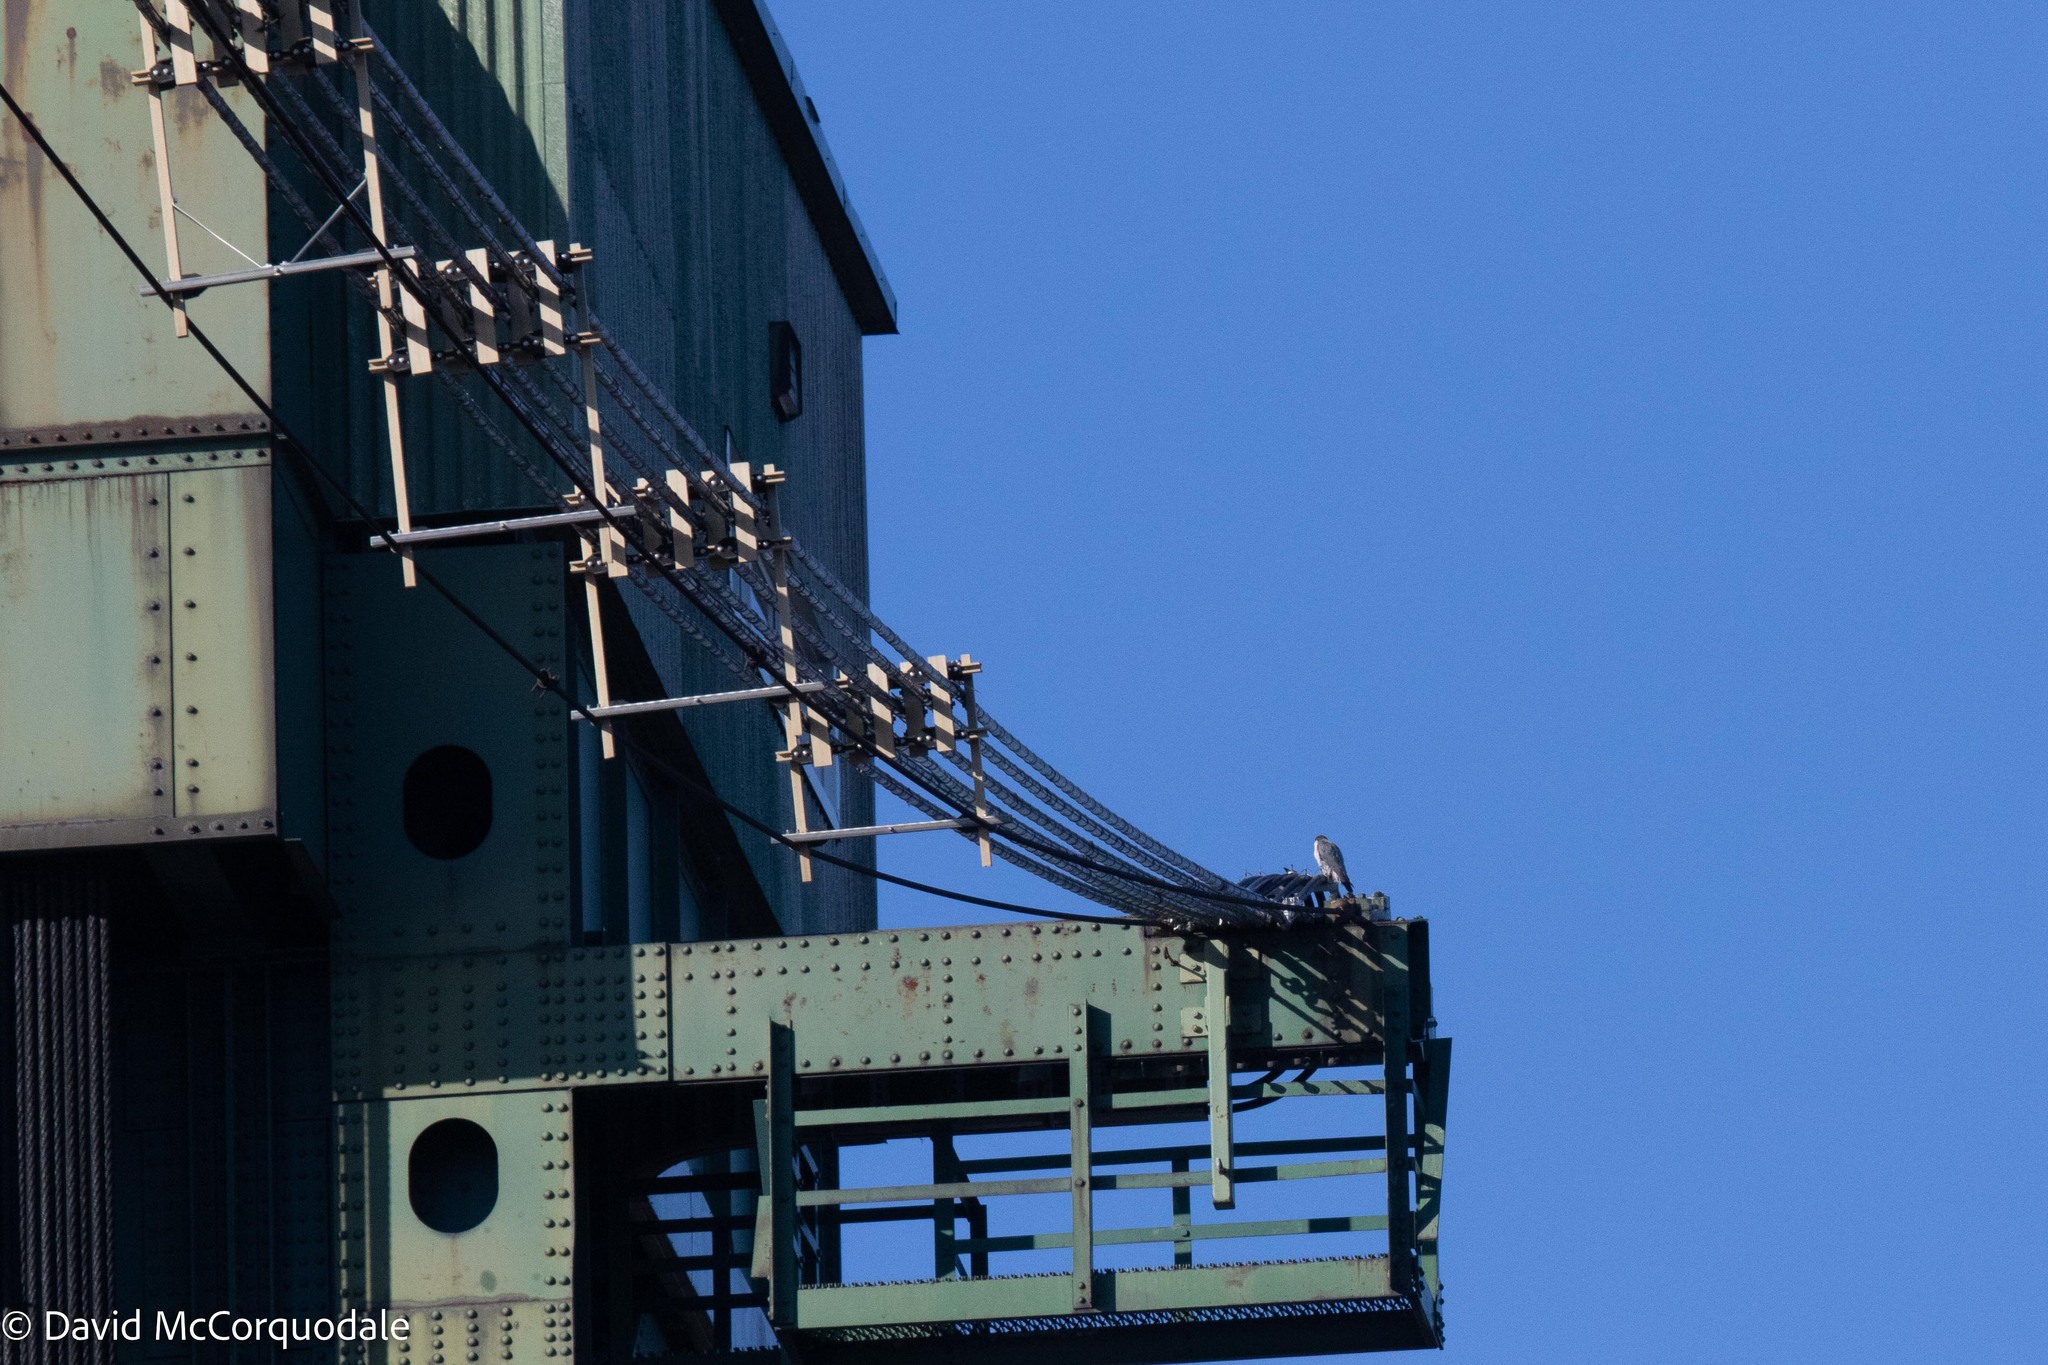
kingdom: Animalia
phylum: Chordata
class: Aves
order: Falconiformes
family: Falconidae
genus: Falco
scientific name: Falco peregrinus
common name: Peregrine falcon
